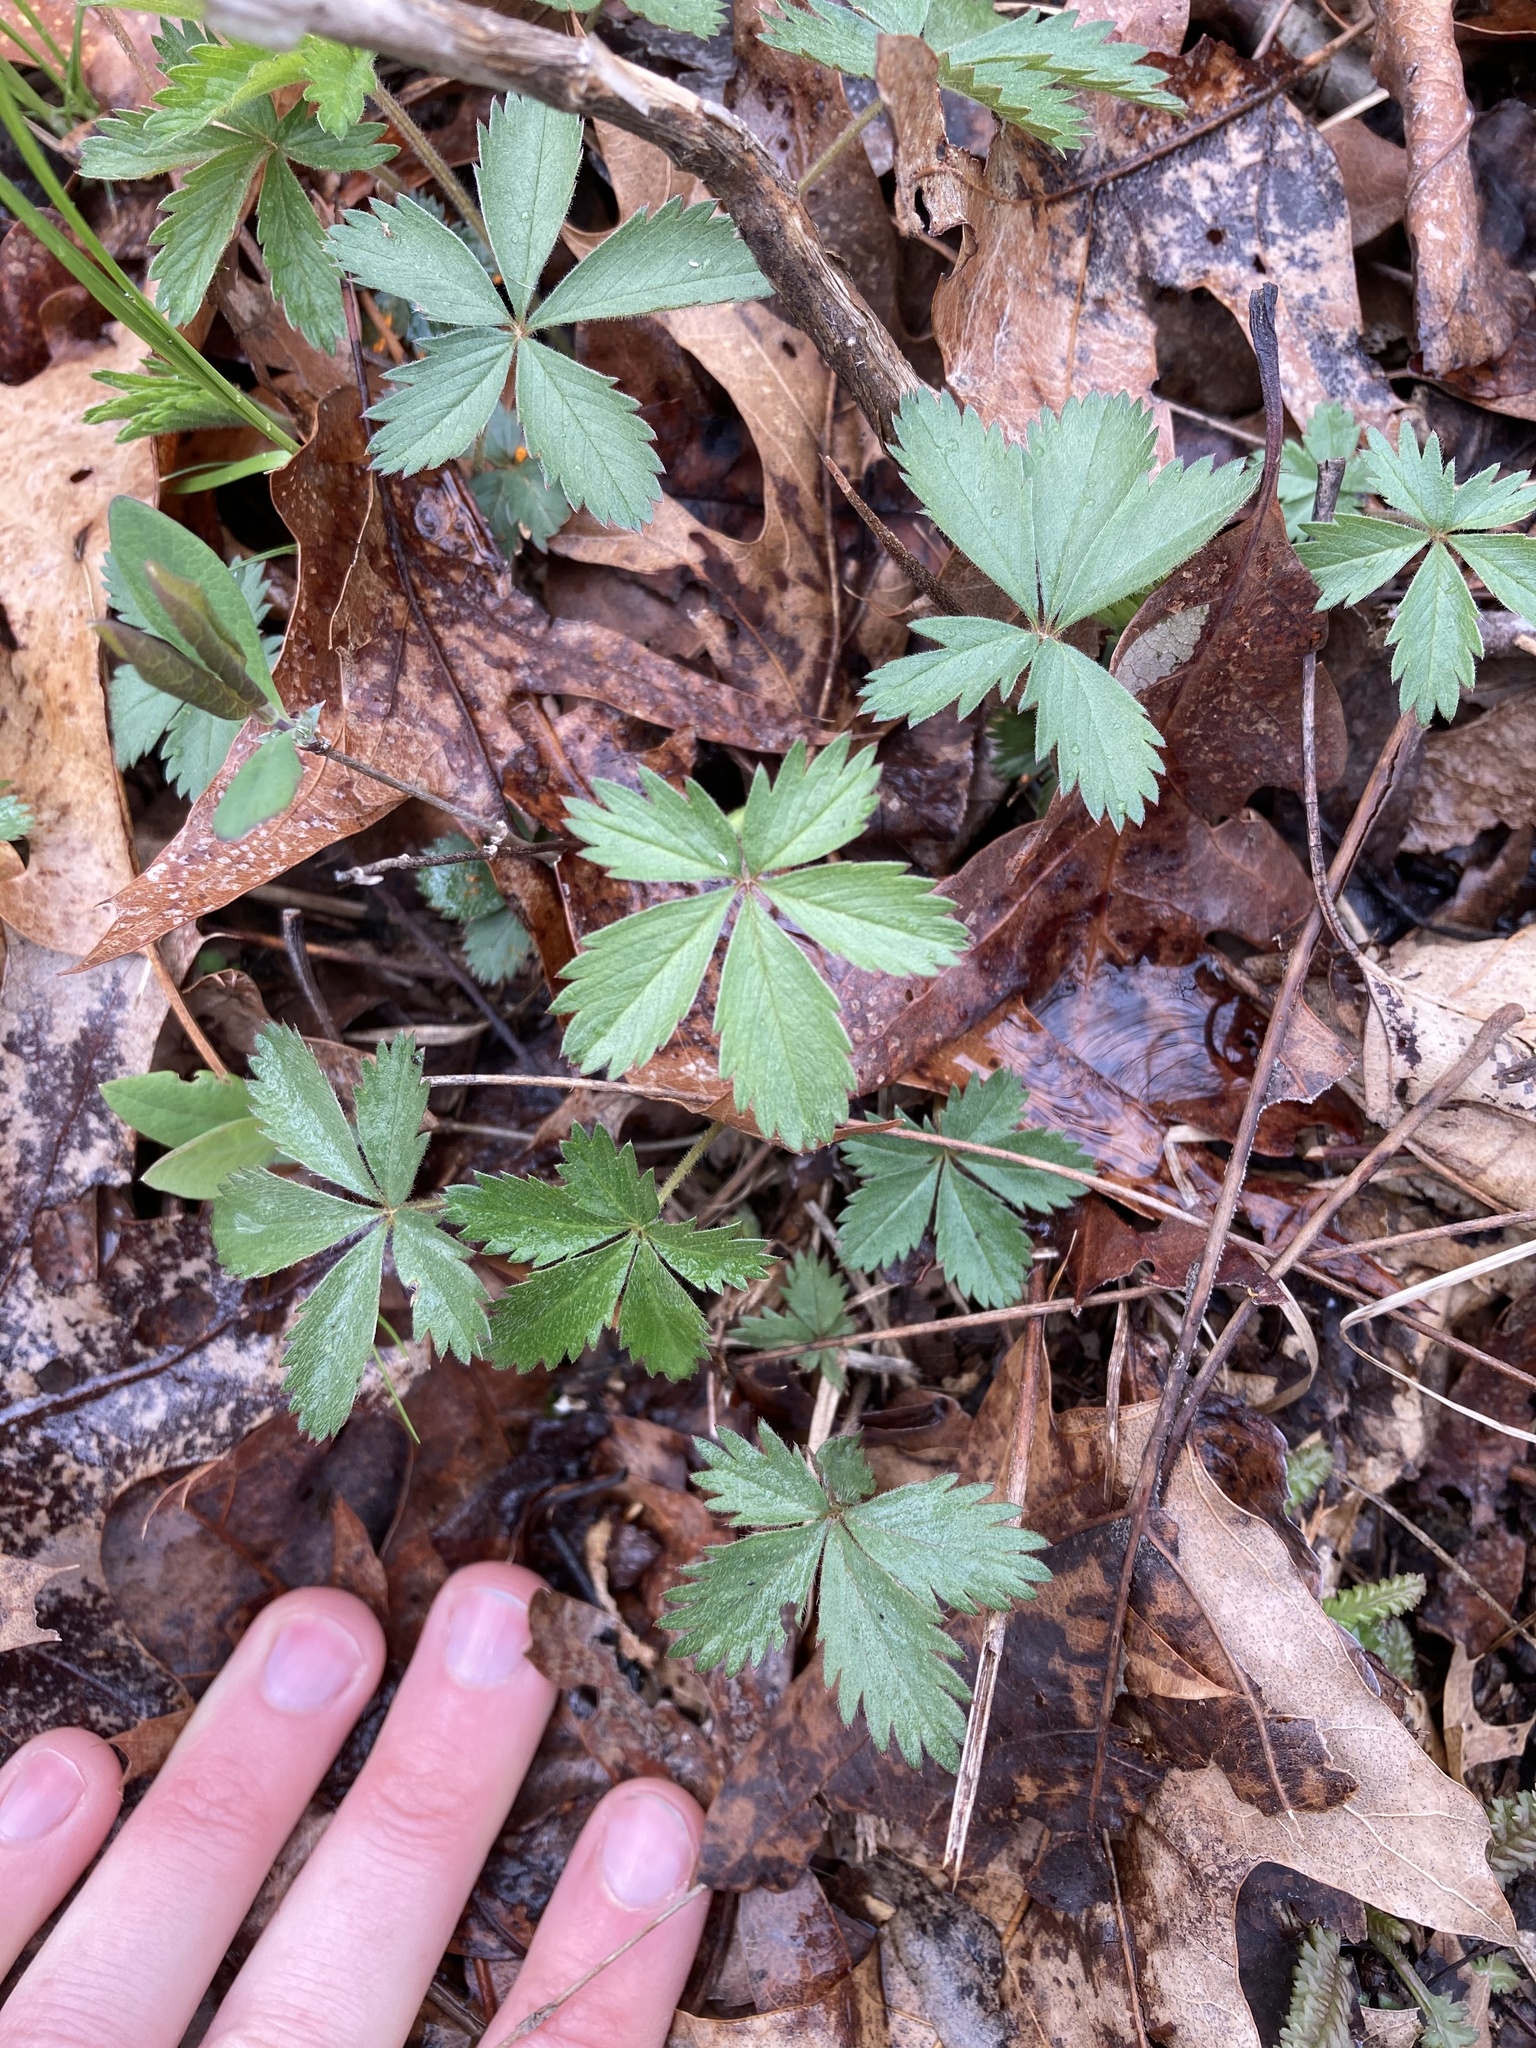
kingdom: Plantae
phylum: Tracheophyta
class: Magnoliopsida
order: Rosales
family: Rosaceae
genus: Potentilla
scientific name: Potentilla simplex
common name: Old field cinquefoil
